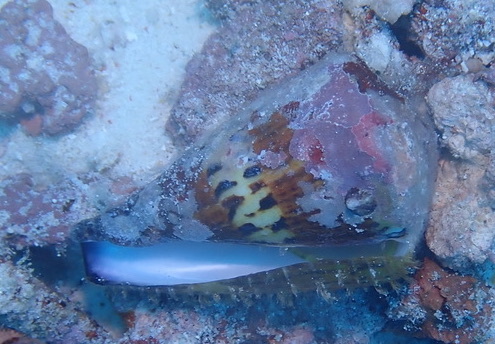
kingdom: Animalia
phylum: Mollusca
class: Gastropoda
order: Neogastropoda
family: Conidae
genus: Conus
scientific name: Conus capitaneus
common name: Captain cone
